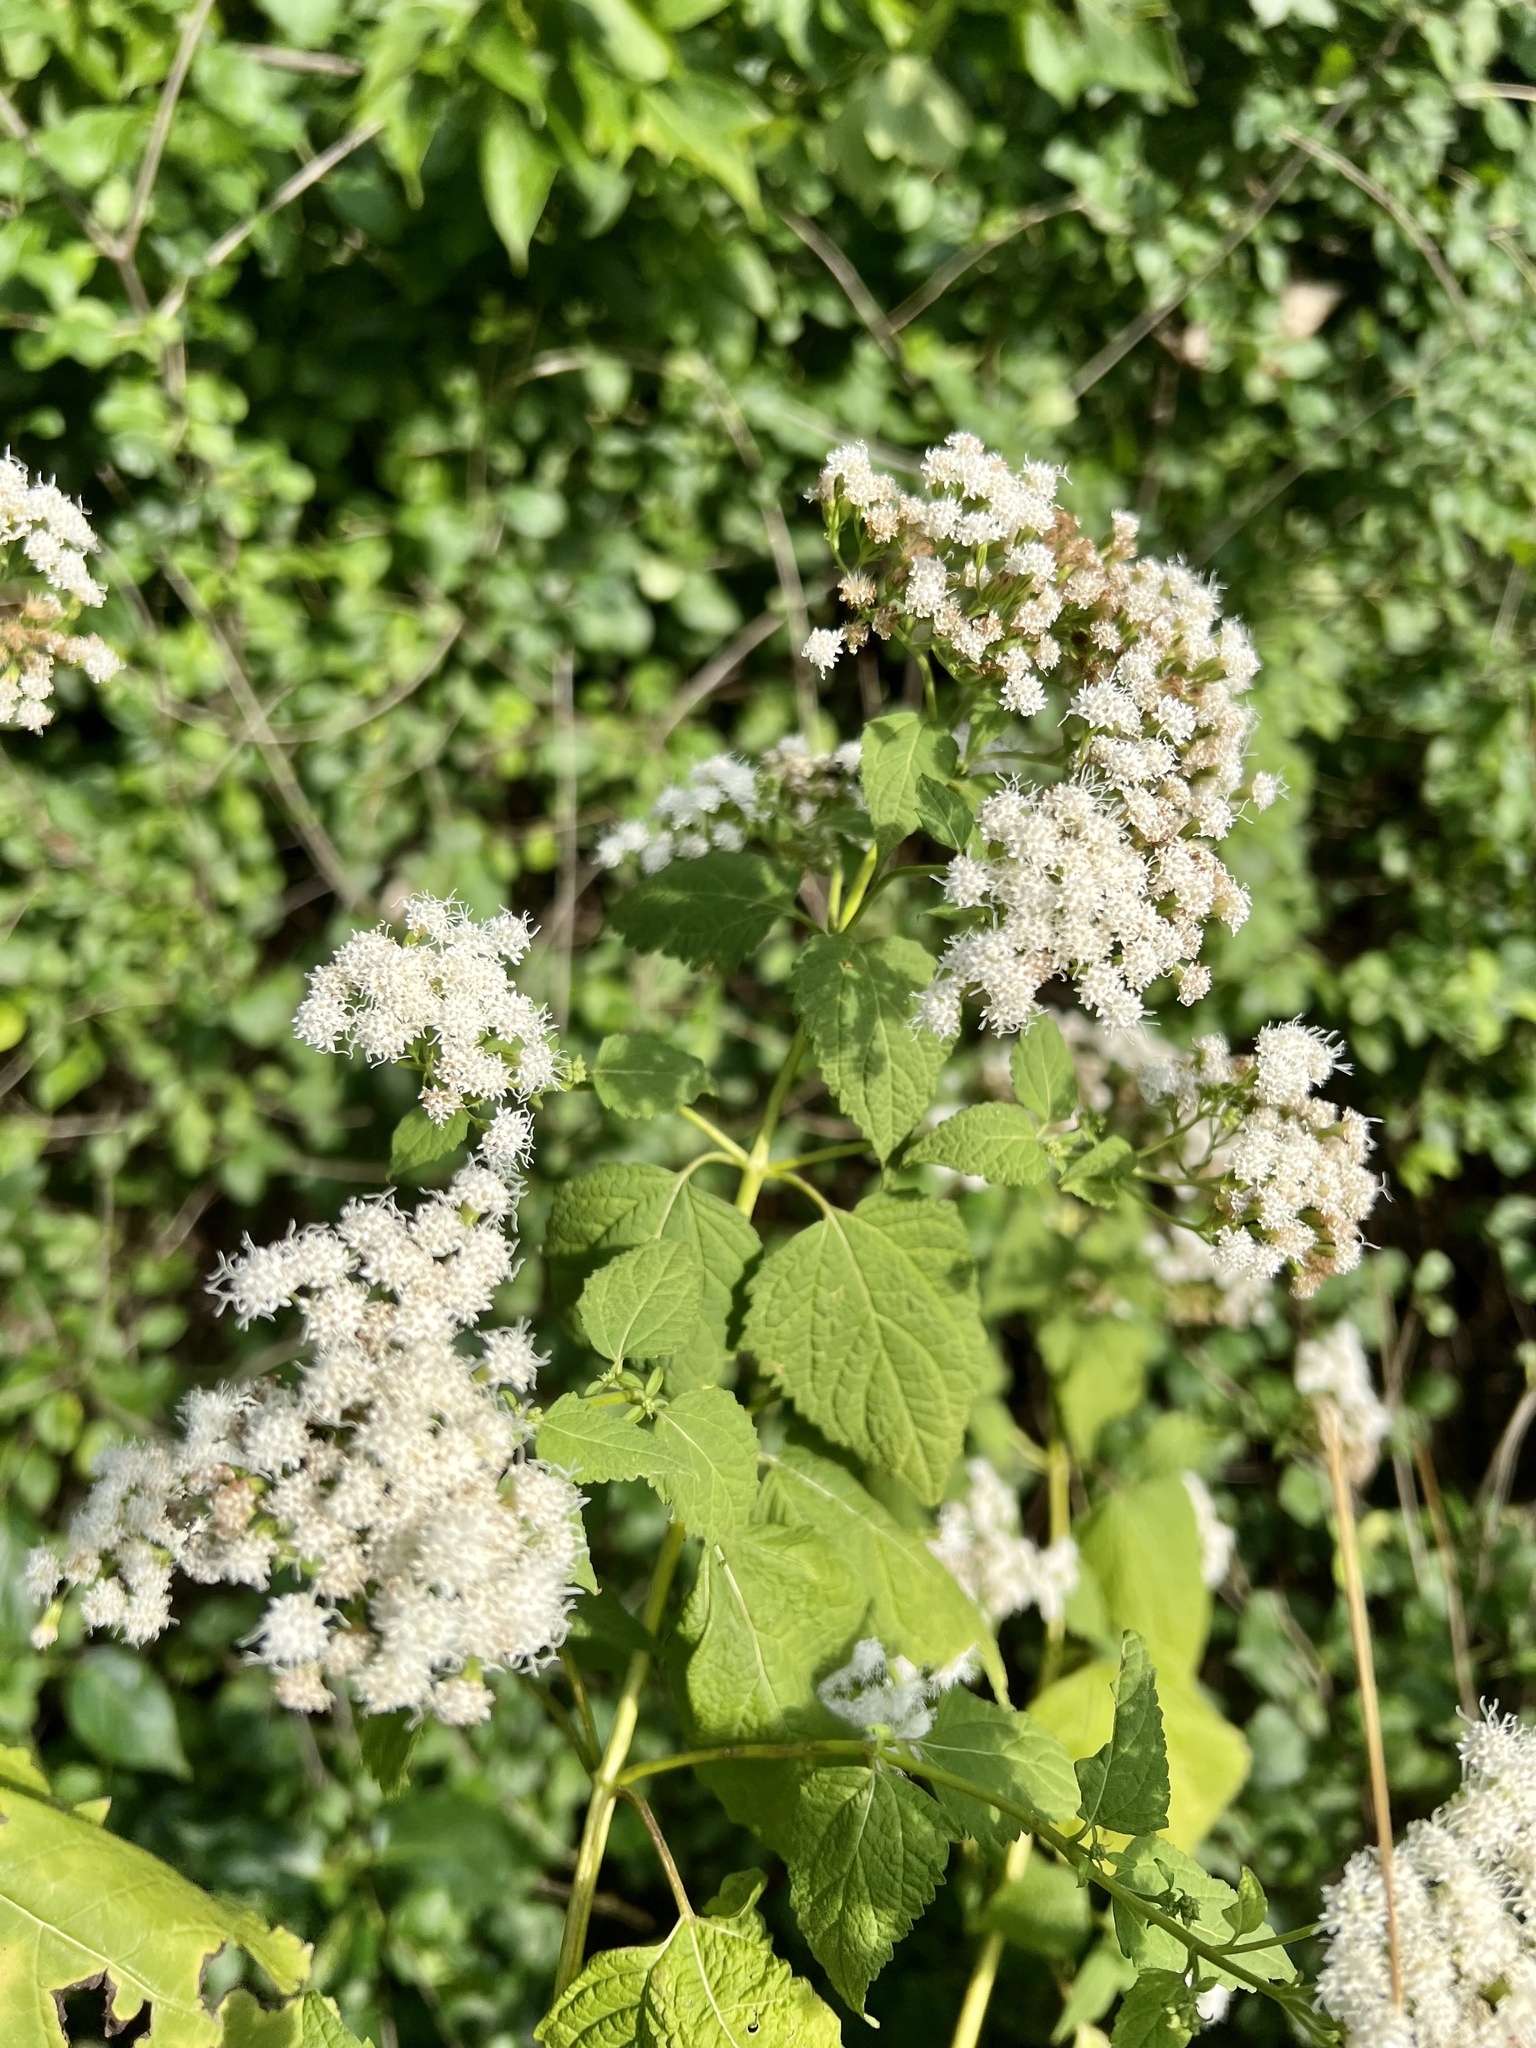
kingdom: Plantae
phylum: Tracheophyta
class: Magnoliopsida
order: Asterales
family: Asteraceae
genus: Ageratina
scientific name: Ageratina altissima
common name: White snakeroot
